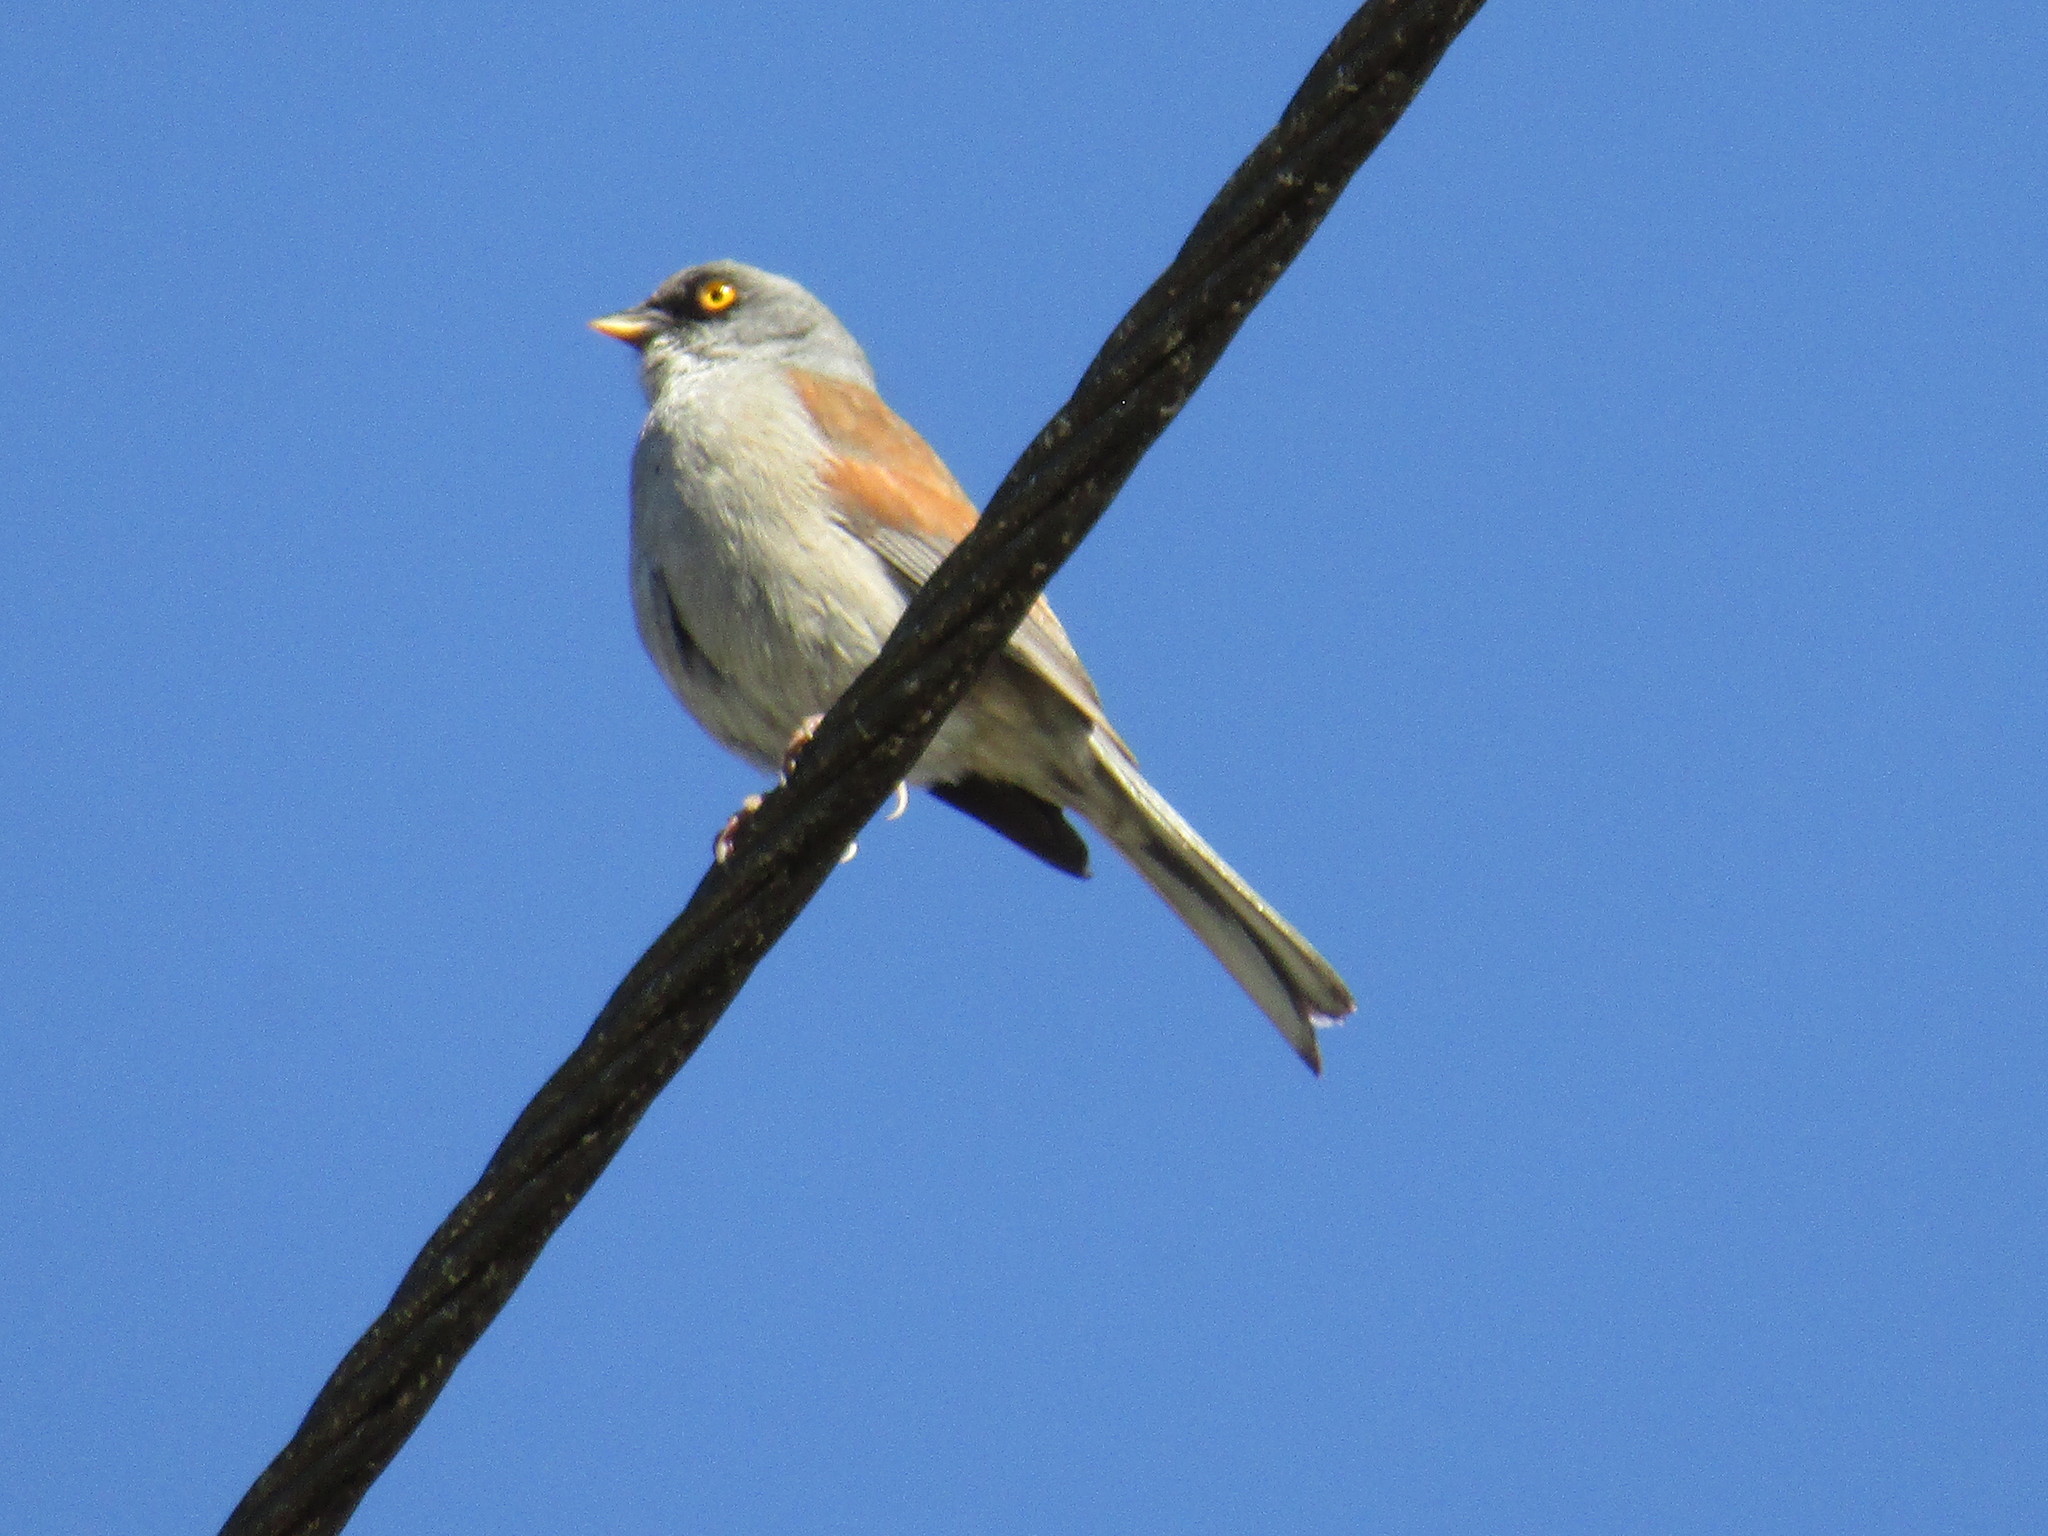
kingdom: Animalia
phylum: Chordata
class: Aves
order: Passeriformes
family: Passerellidae
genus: Junco
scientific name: Junco phaeonotus
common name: Yellow-eyed junco
